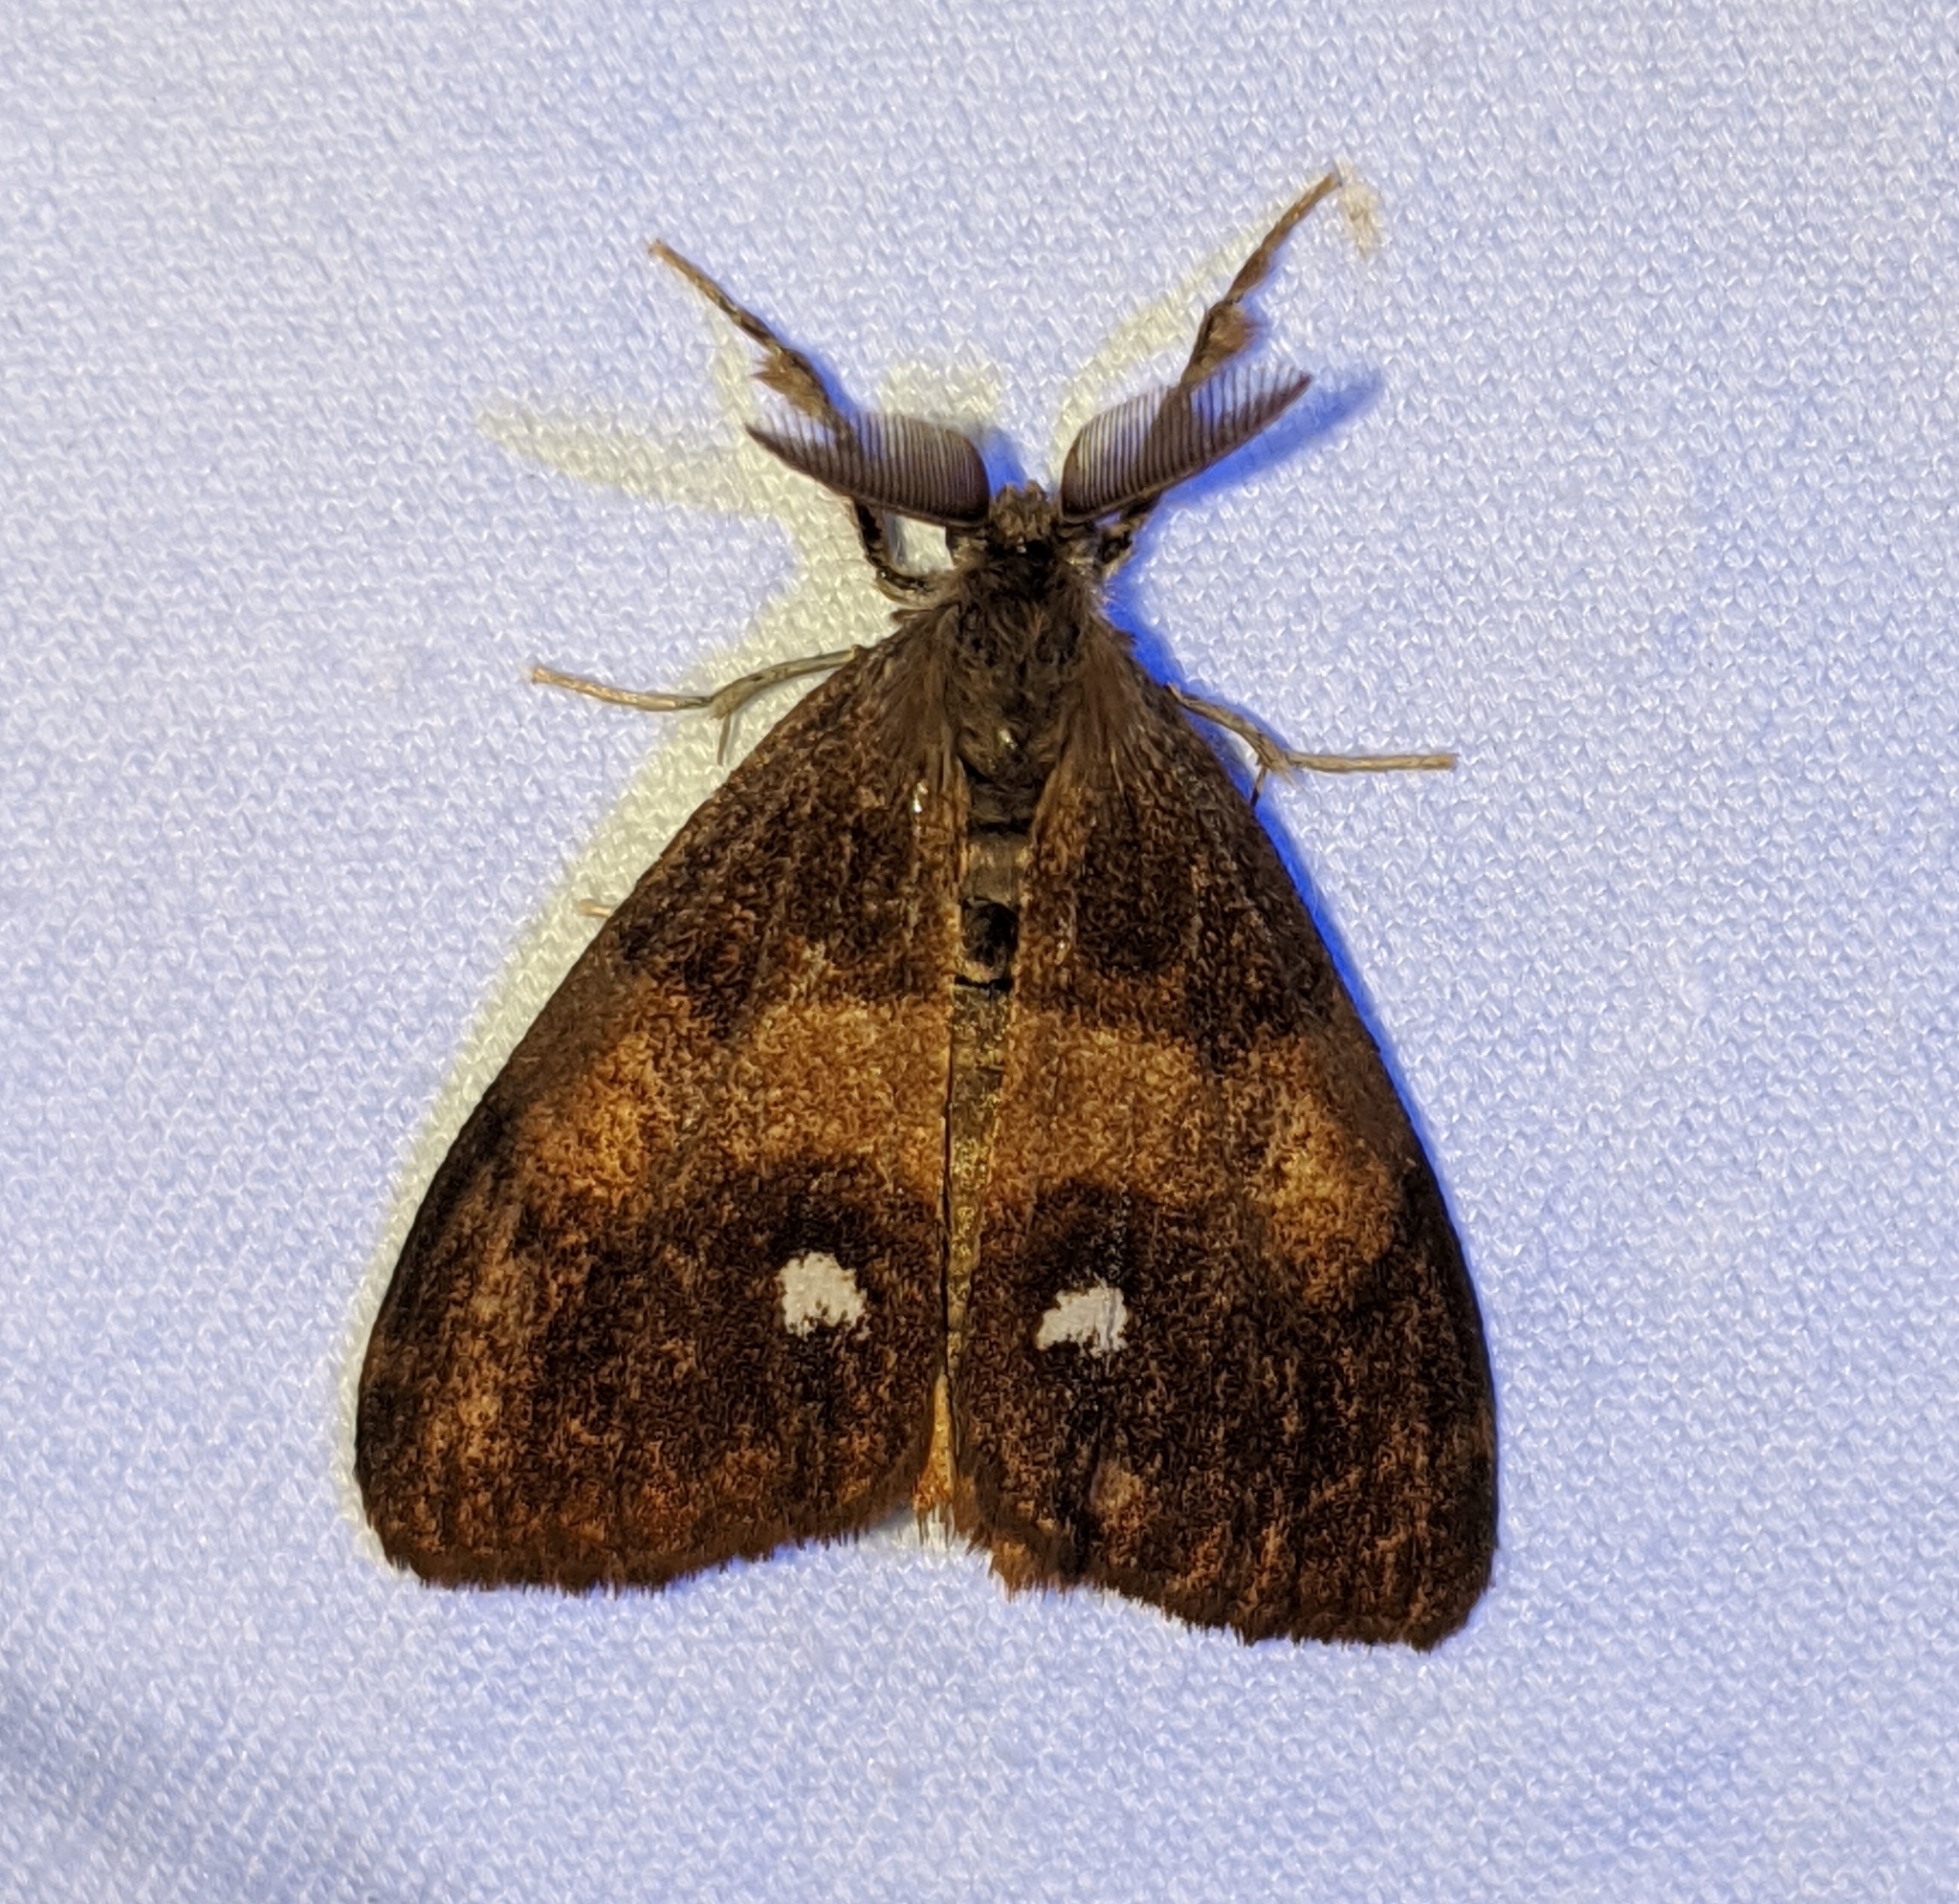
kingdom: Animalia
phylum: Arthropoda
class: Insecta
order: Lepidoptera
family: Erebidae
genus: Orgyia
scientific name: Orgyia antiqua
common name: Vapourer
